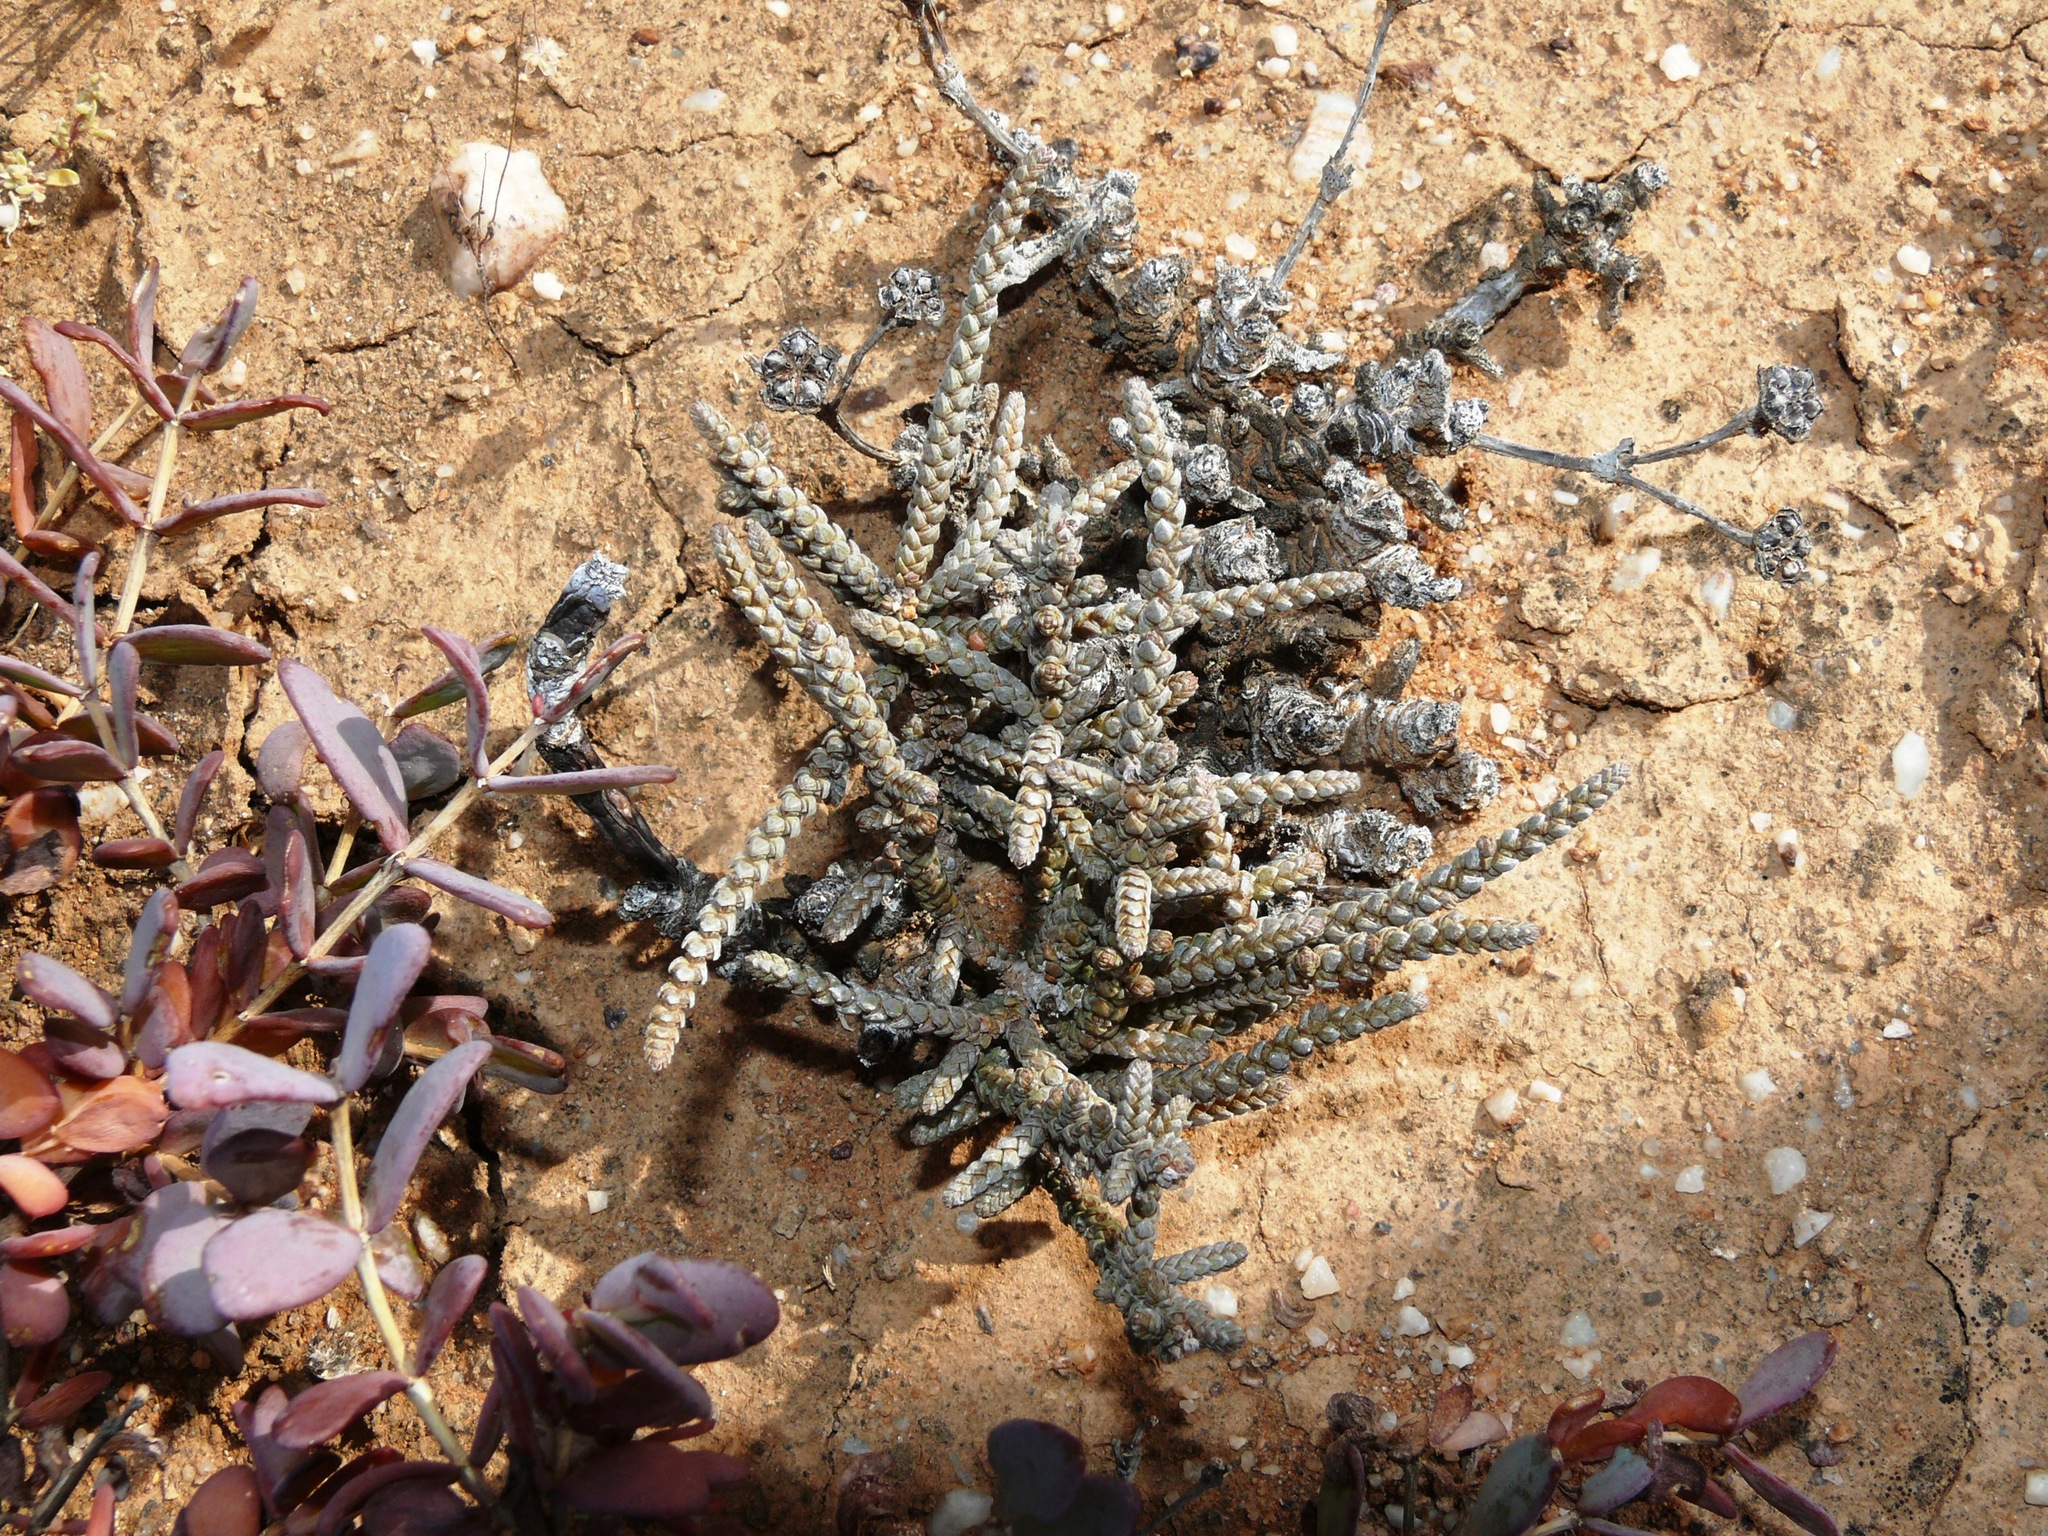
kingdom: Plantae
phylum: Tracheophyta
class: Magnoliopsida
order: Saxifragales
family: Crassulaceae
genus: Crassula
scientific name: Crassula muscosa
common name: Toy-cypress
